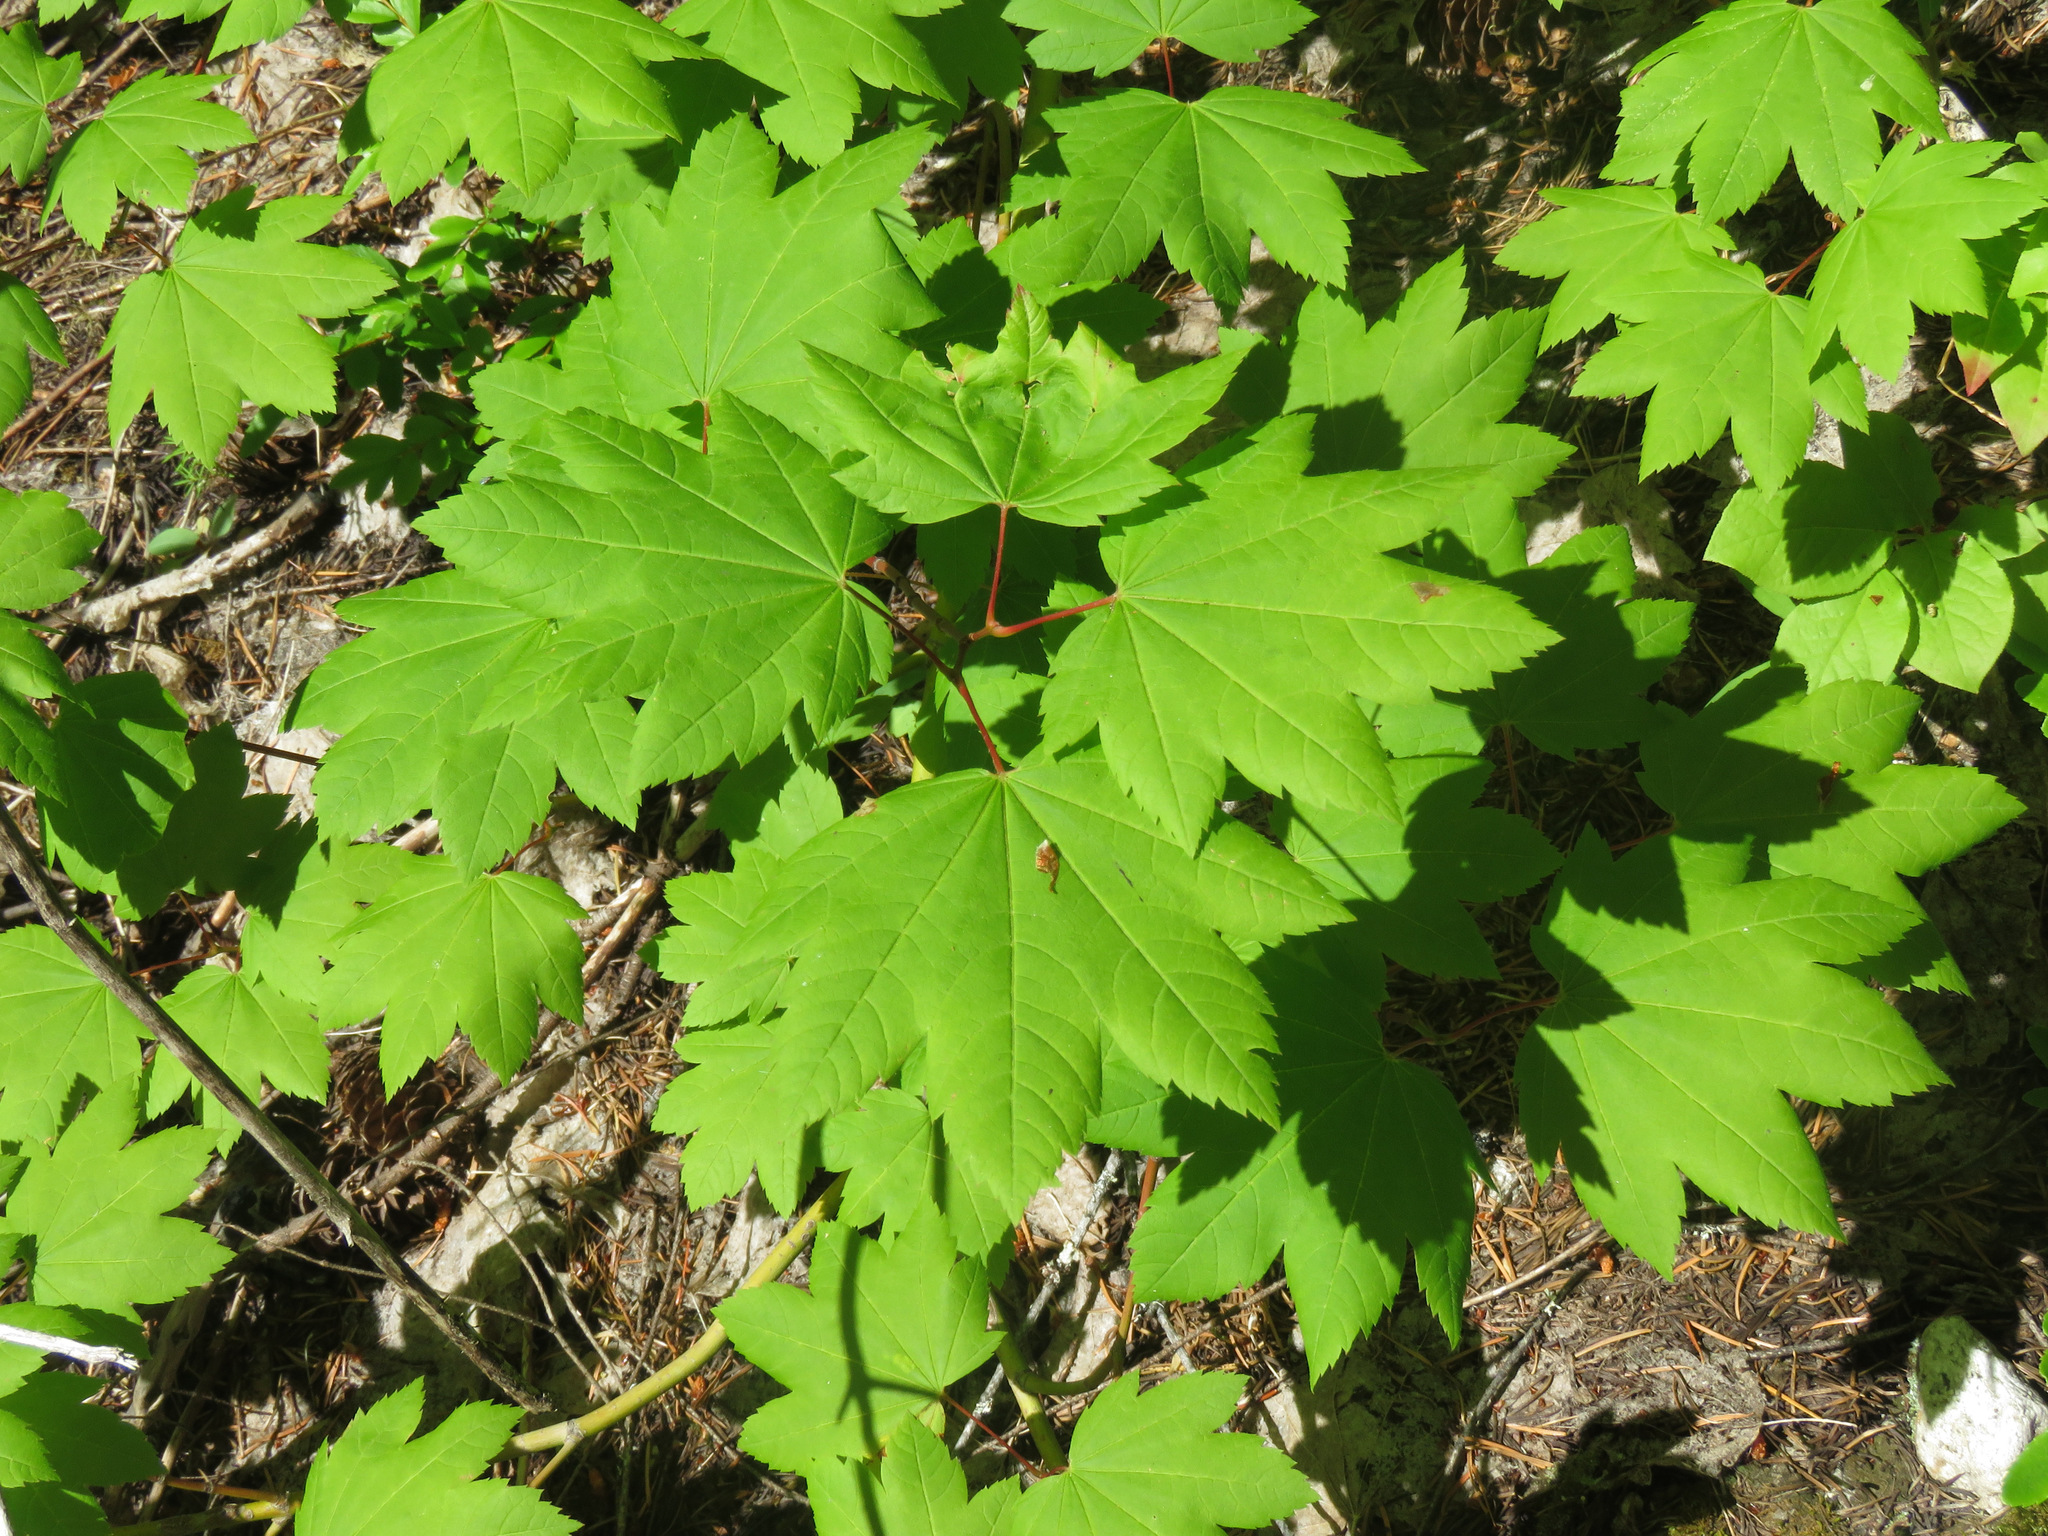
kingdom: Plantae
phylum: Tracheophyta
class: Magnoliopsida
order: Sapindales
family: Sapindaceae
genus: Acer
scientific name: Acer circinatum
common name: Vine maple
